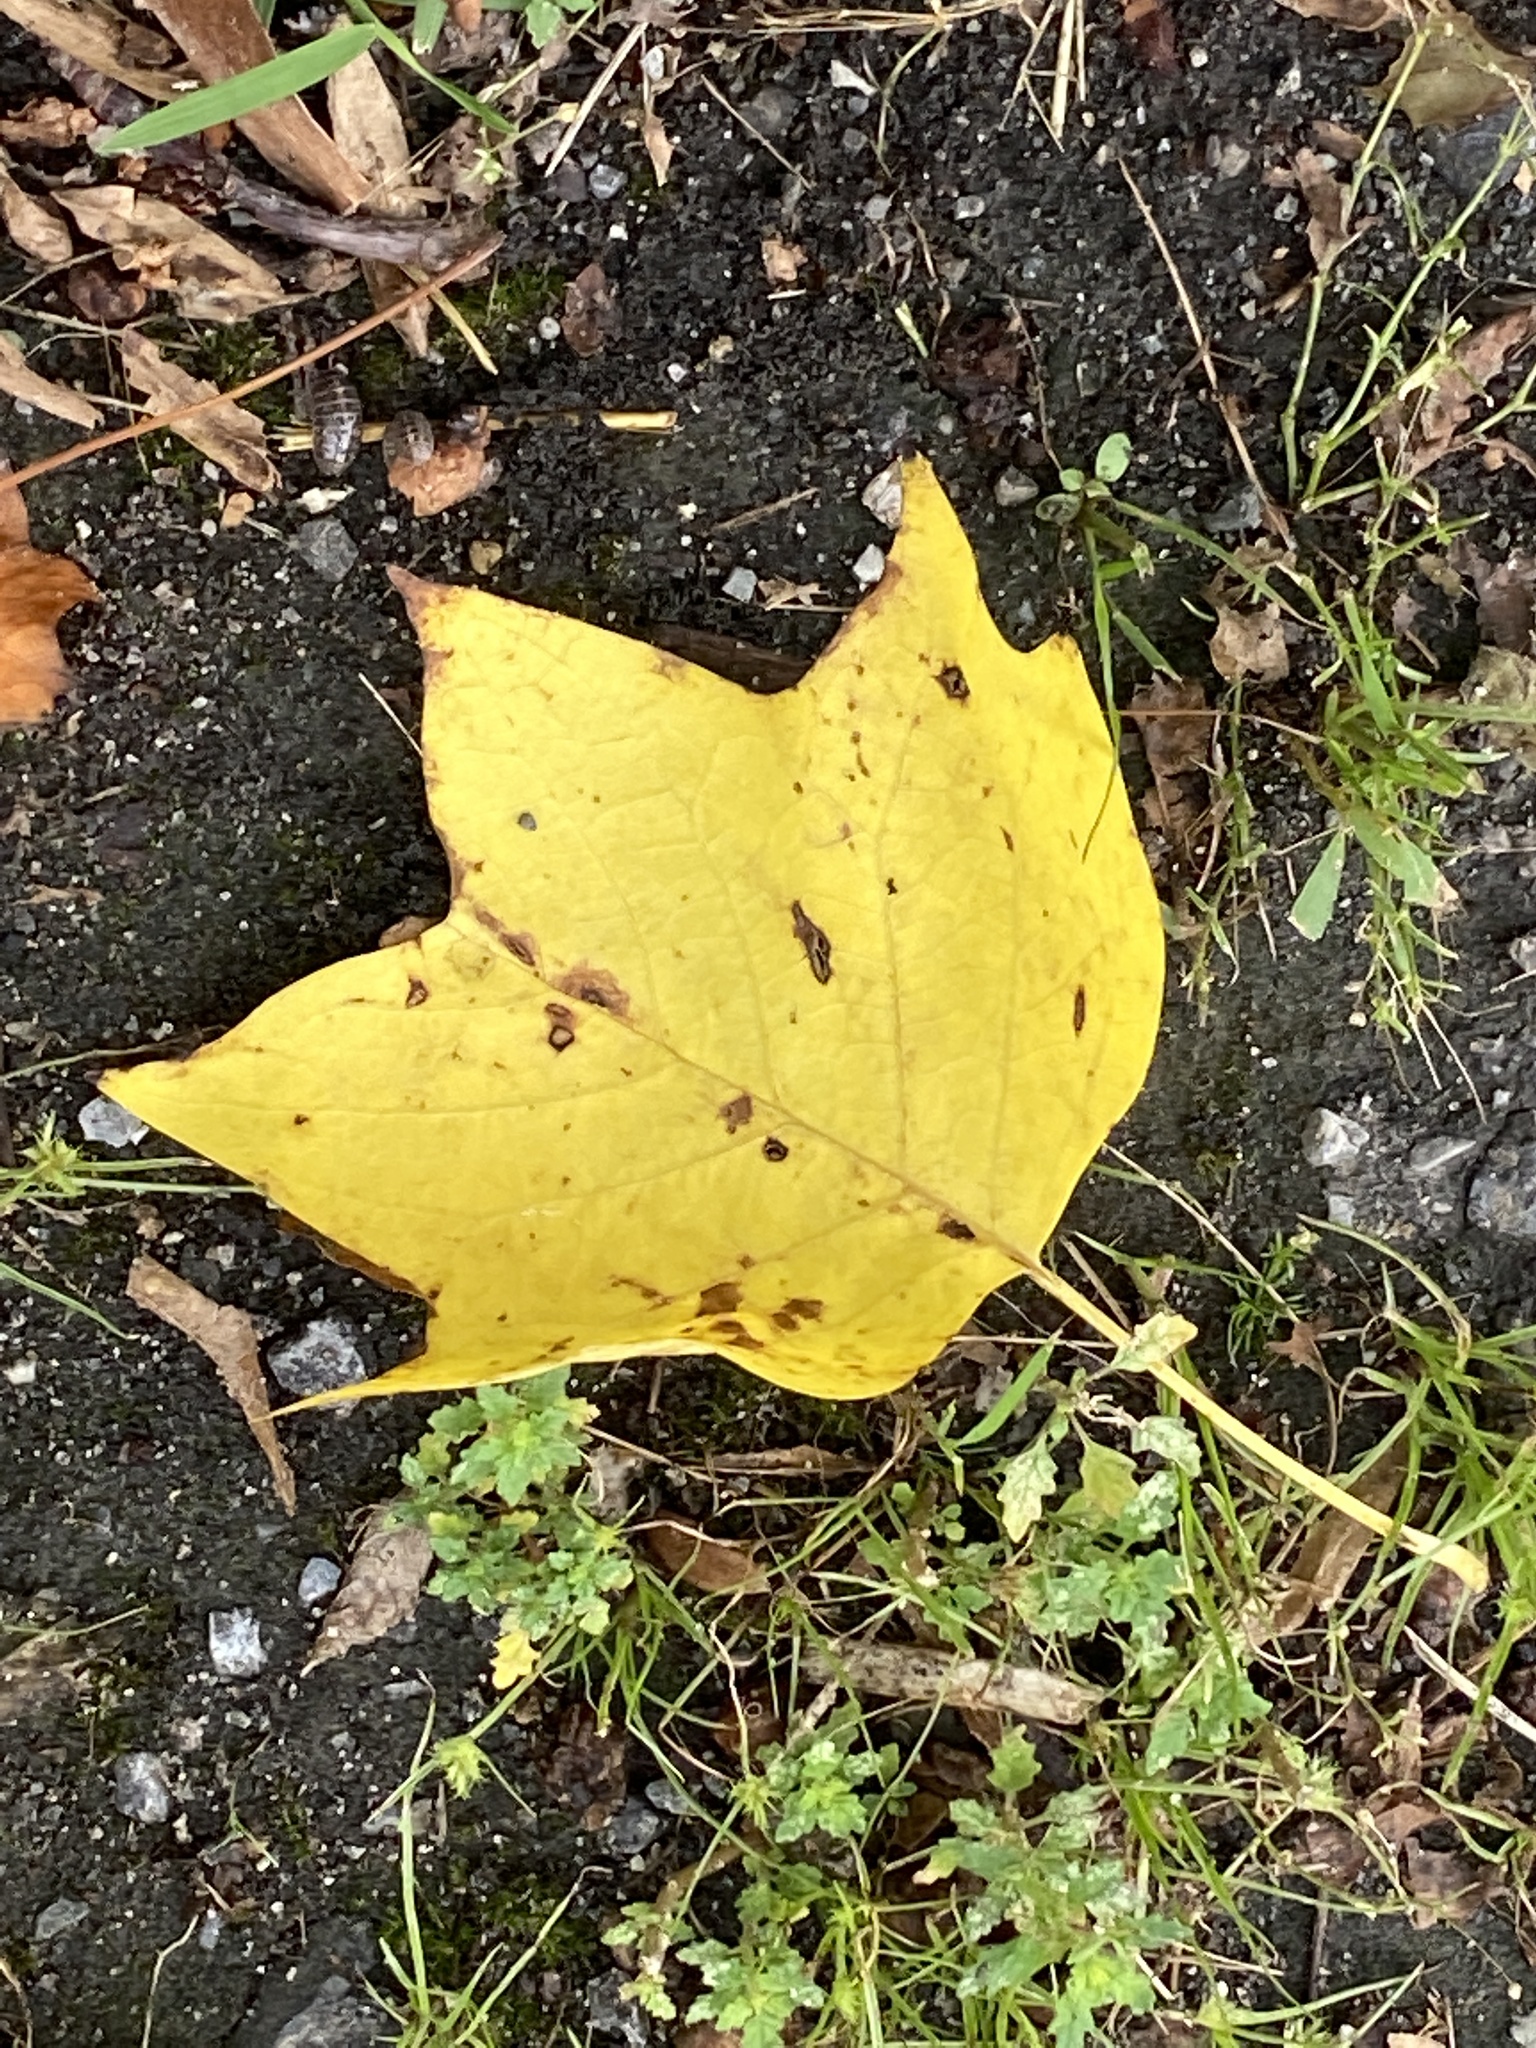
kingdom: Plantae
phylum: Tracheophyta
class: Magnoliopsida
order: Magnoliales
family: Magnoliaceae
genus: Liriodendron
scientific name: Liriodendron tulipifera
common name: Tulip tree
